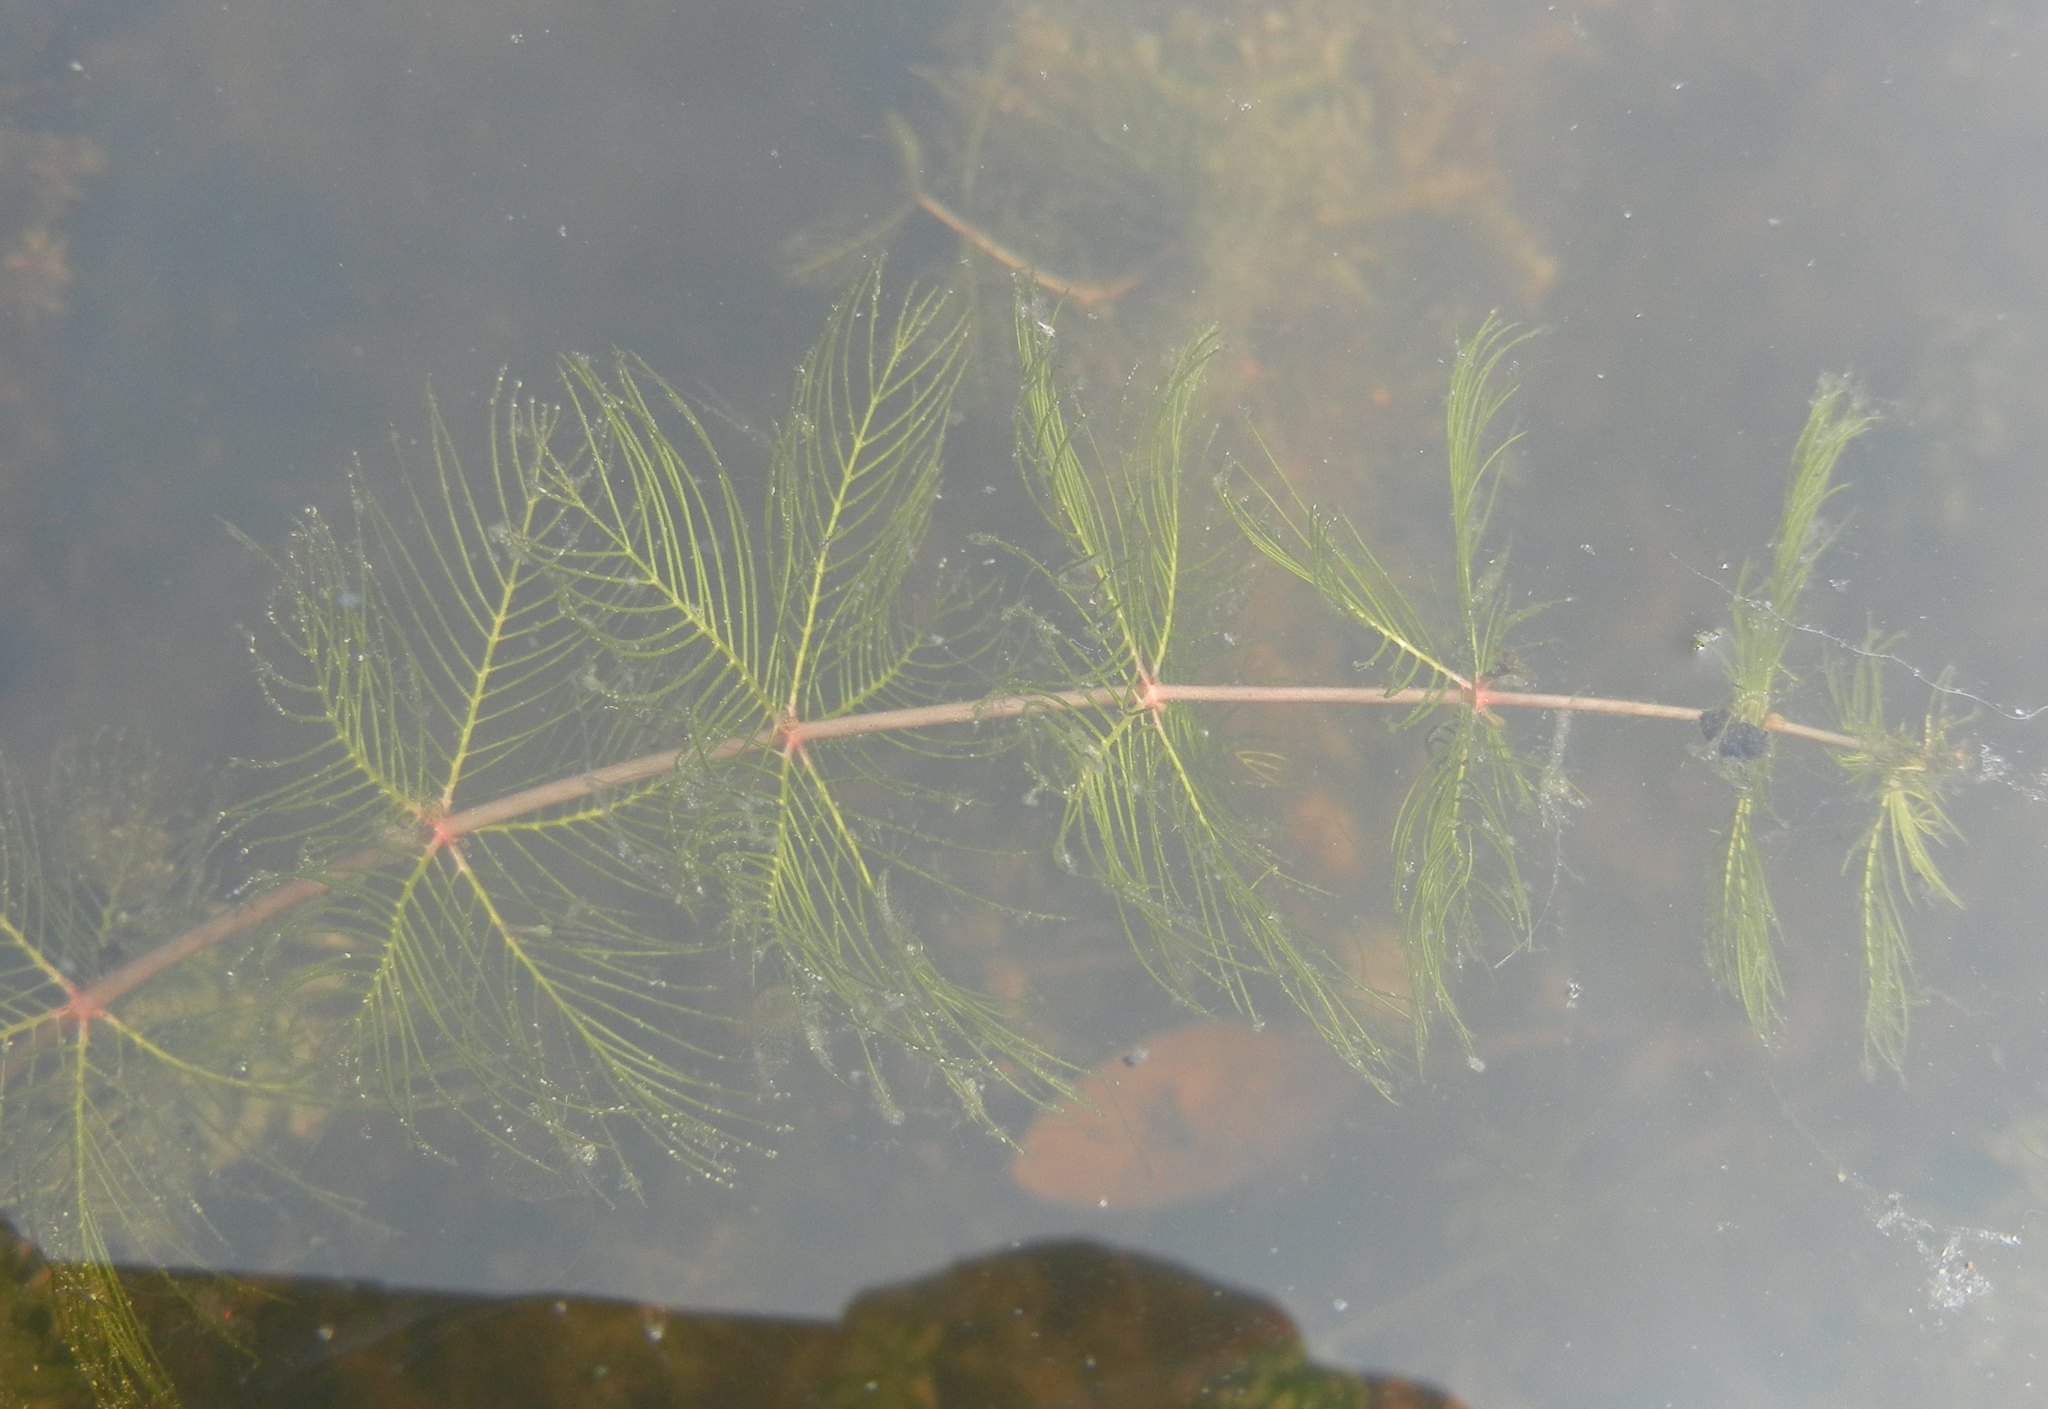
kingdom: Plantae
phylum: Tracheophyta
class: Magnoliopsida
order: Saxifragales
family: Haloragaceae
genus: Myriophyllum
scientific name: Myriophyllum verticillatum
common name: Whorled water-milfoil
